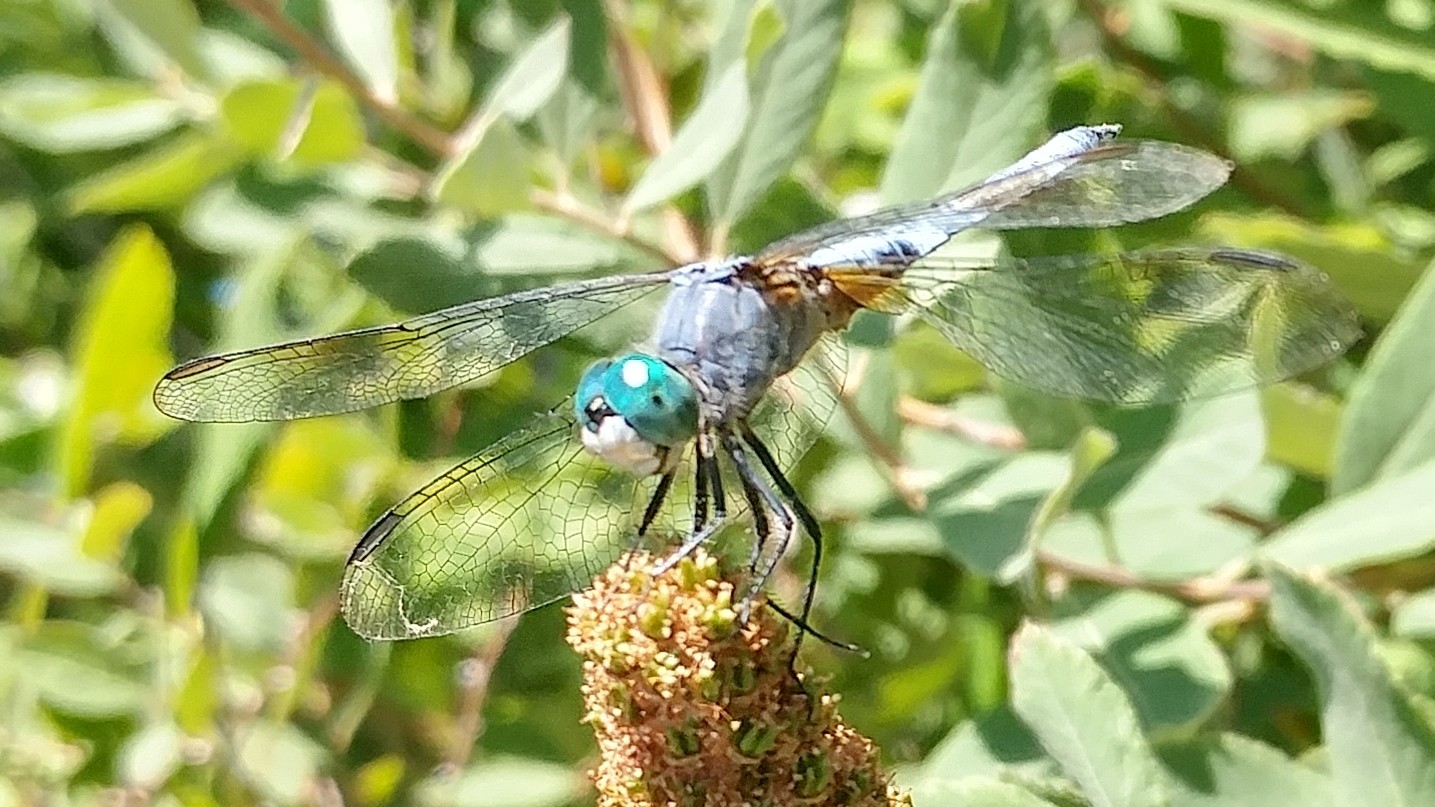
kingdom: Animalia
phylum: Arthropoda
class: Insecta
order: Odonata
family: Libellulidae
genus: Pachydiplax
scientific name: Pachydiplax longipennis
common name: Blue dasher
